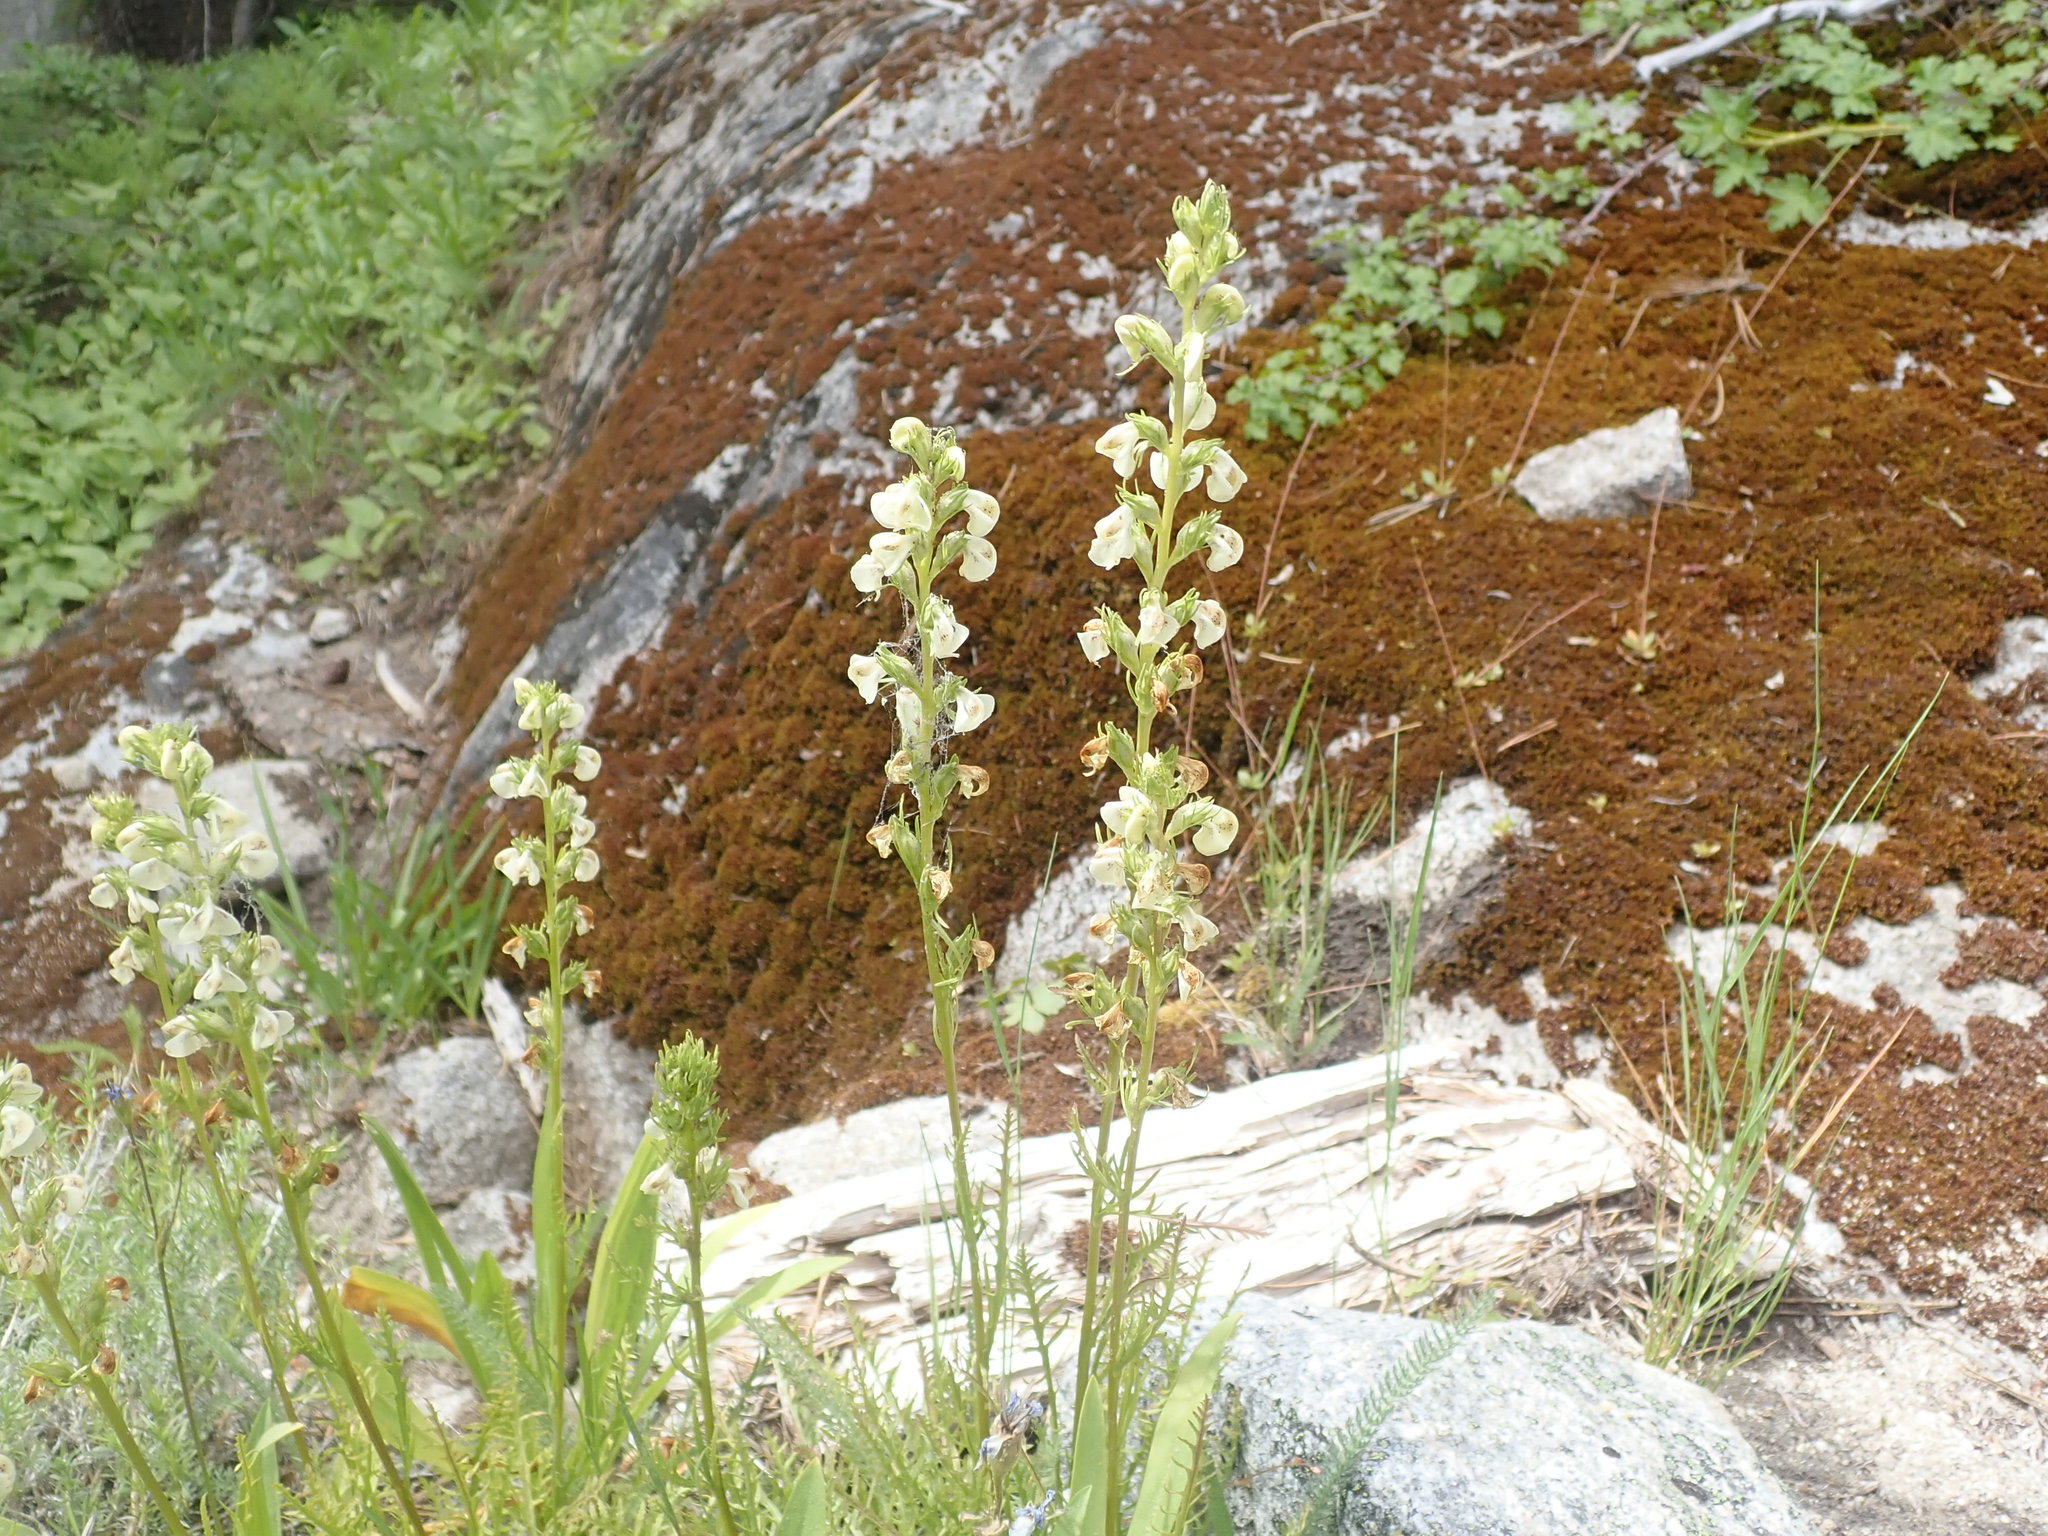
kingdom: Plantae
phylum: Tracheophyta
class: Magnoliopsida
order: Lamiales
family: Orobanchaceae
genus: Pedicularis
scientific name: Pedicularis contorta
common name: Coiled lousewort
